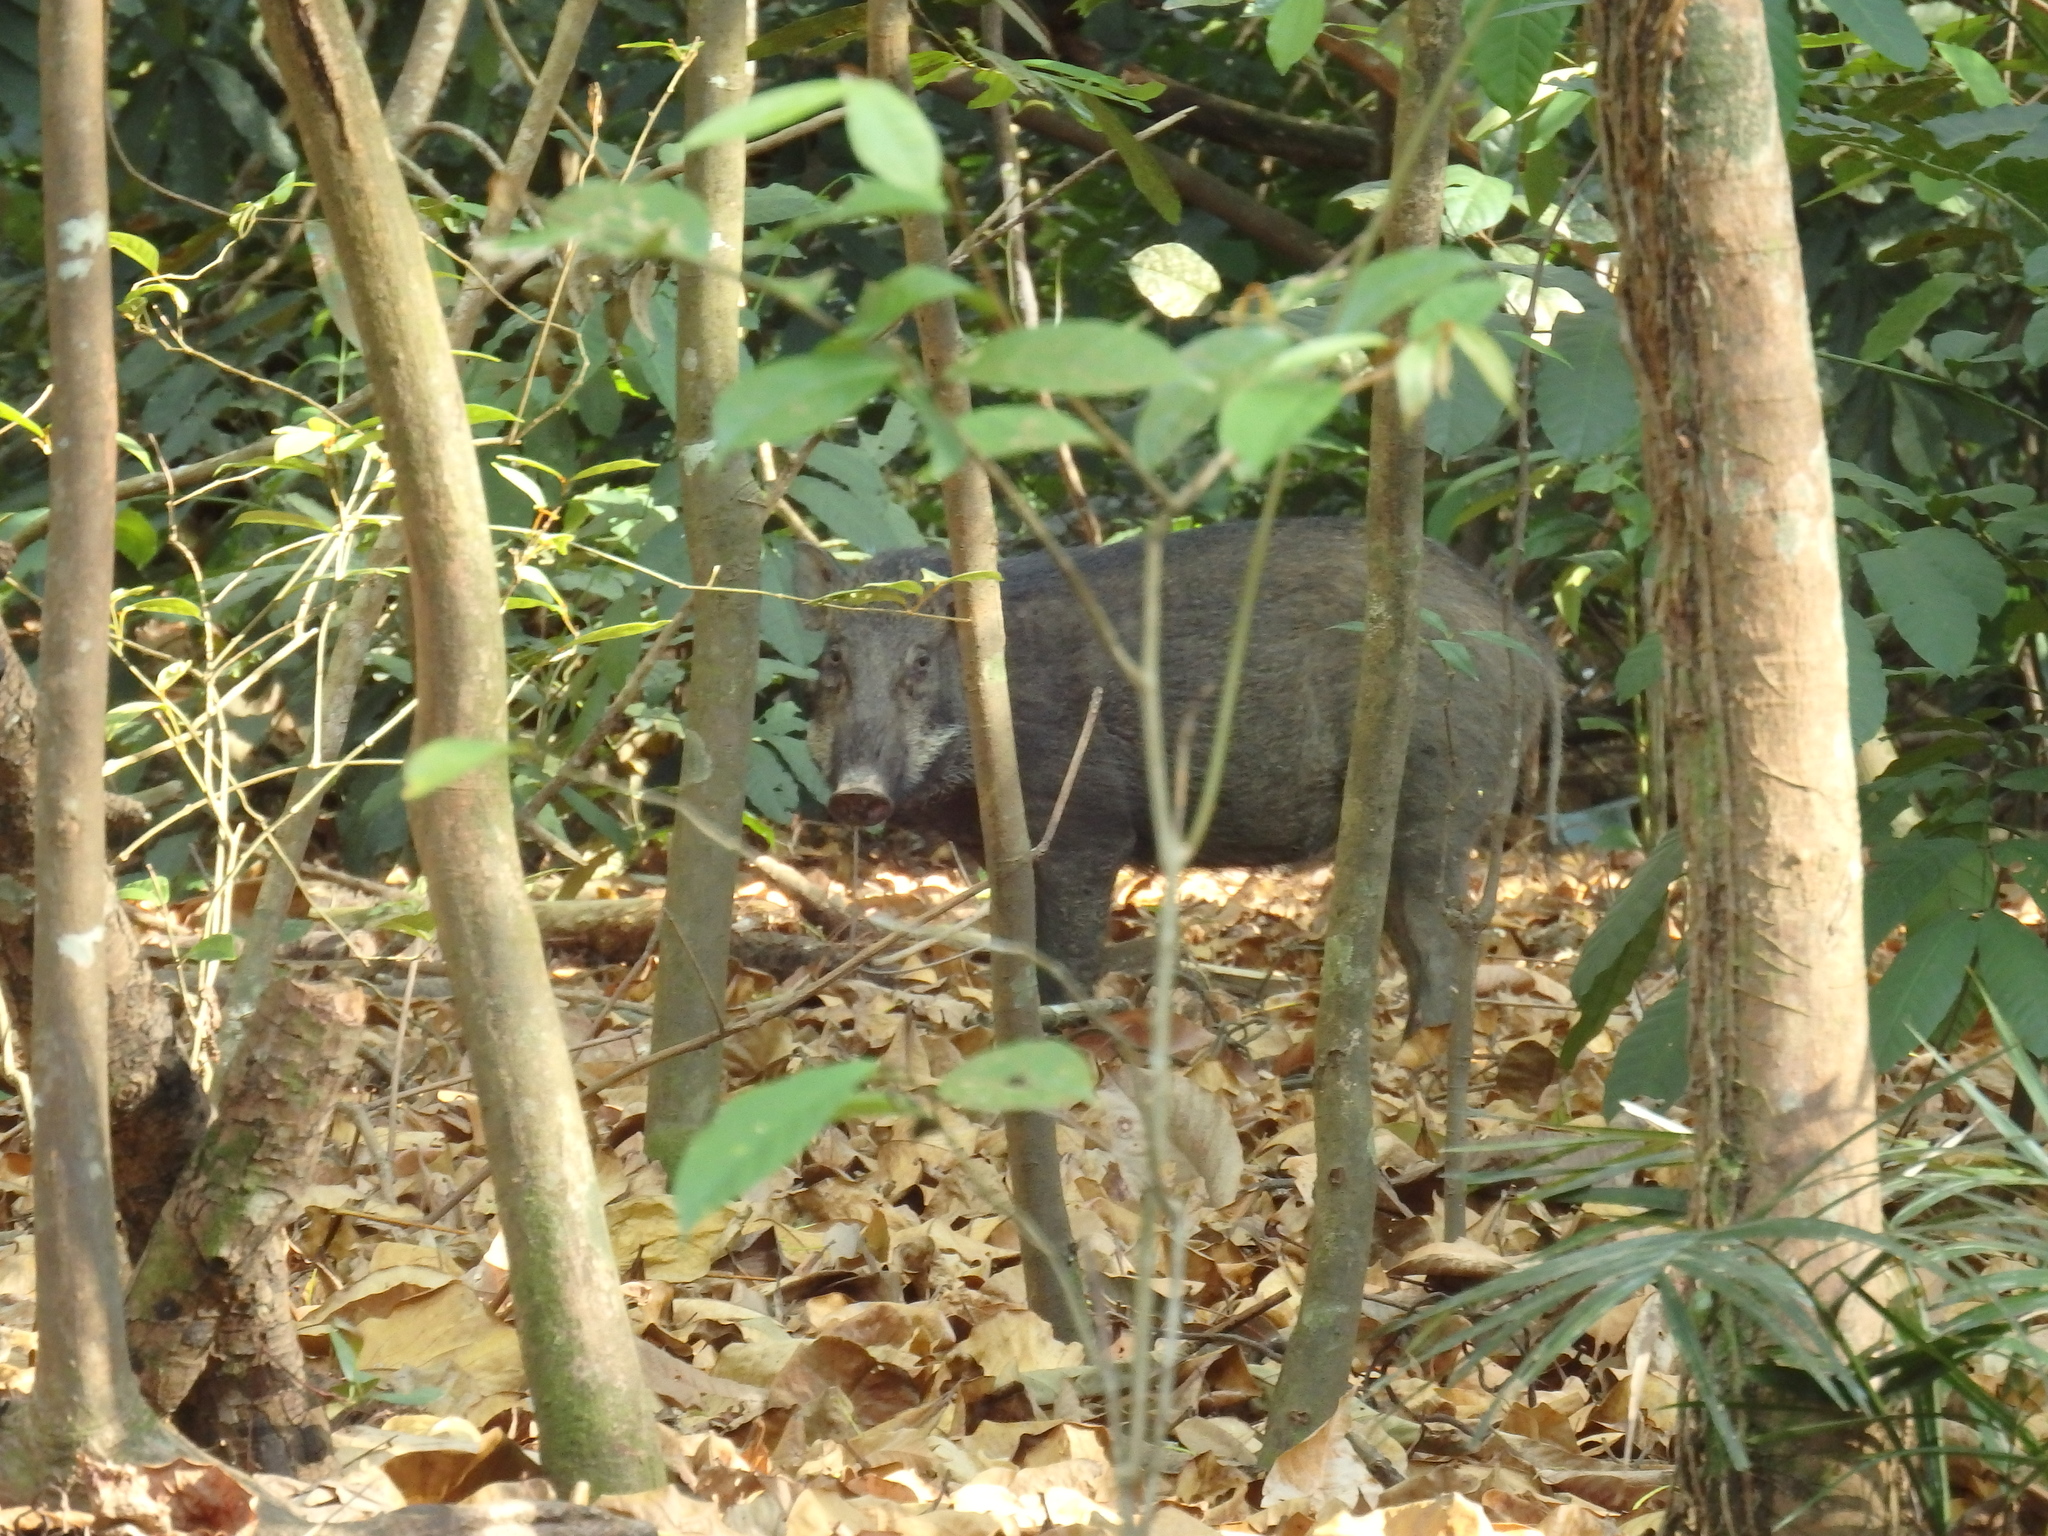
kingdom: Animalia
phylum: Chordata
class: Mammalia
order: Artiodactyla
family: Suidae
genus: Sus
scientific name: Sus scrofa
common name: Wild boar
